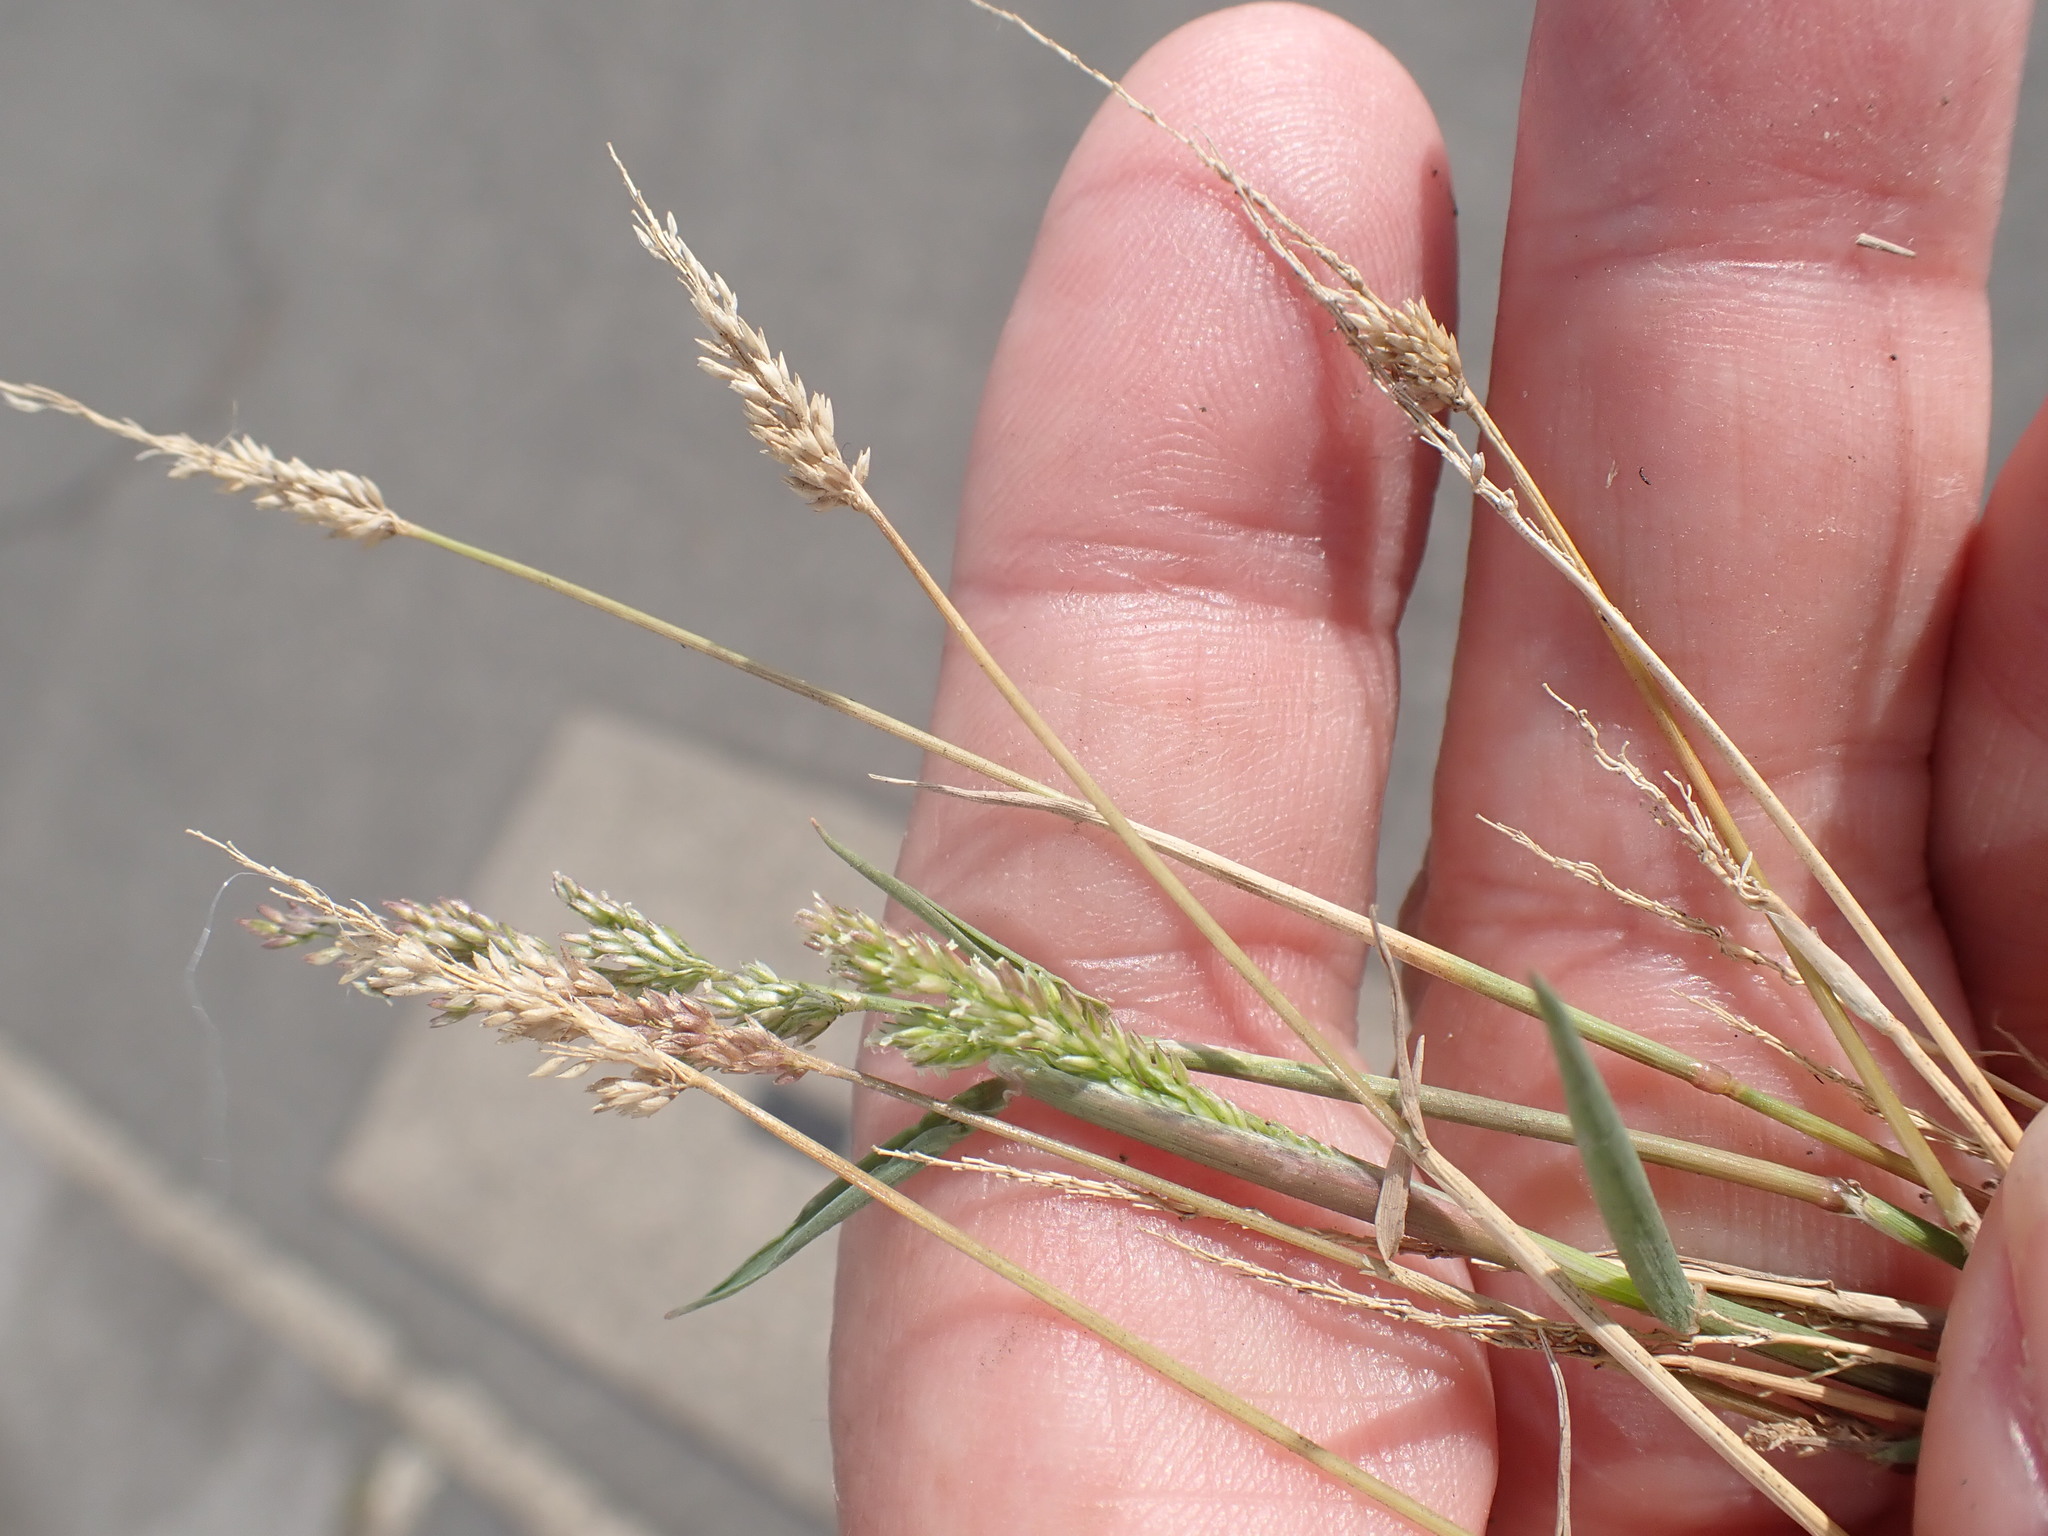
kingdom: Plantae
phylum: Tracheophyta
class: Liliopsida
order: Poales
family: Poaceae
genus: Polypogon
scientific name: Polypogon viridis
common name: Water bent
